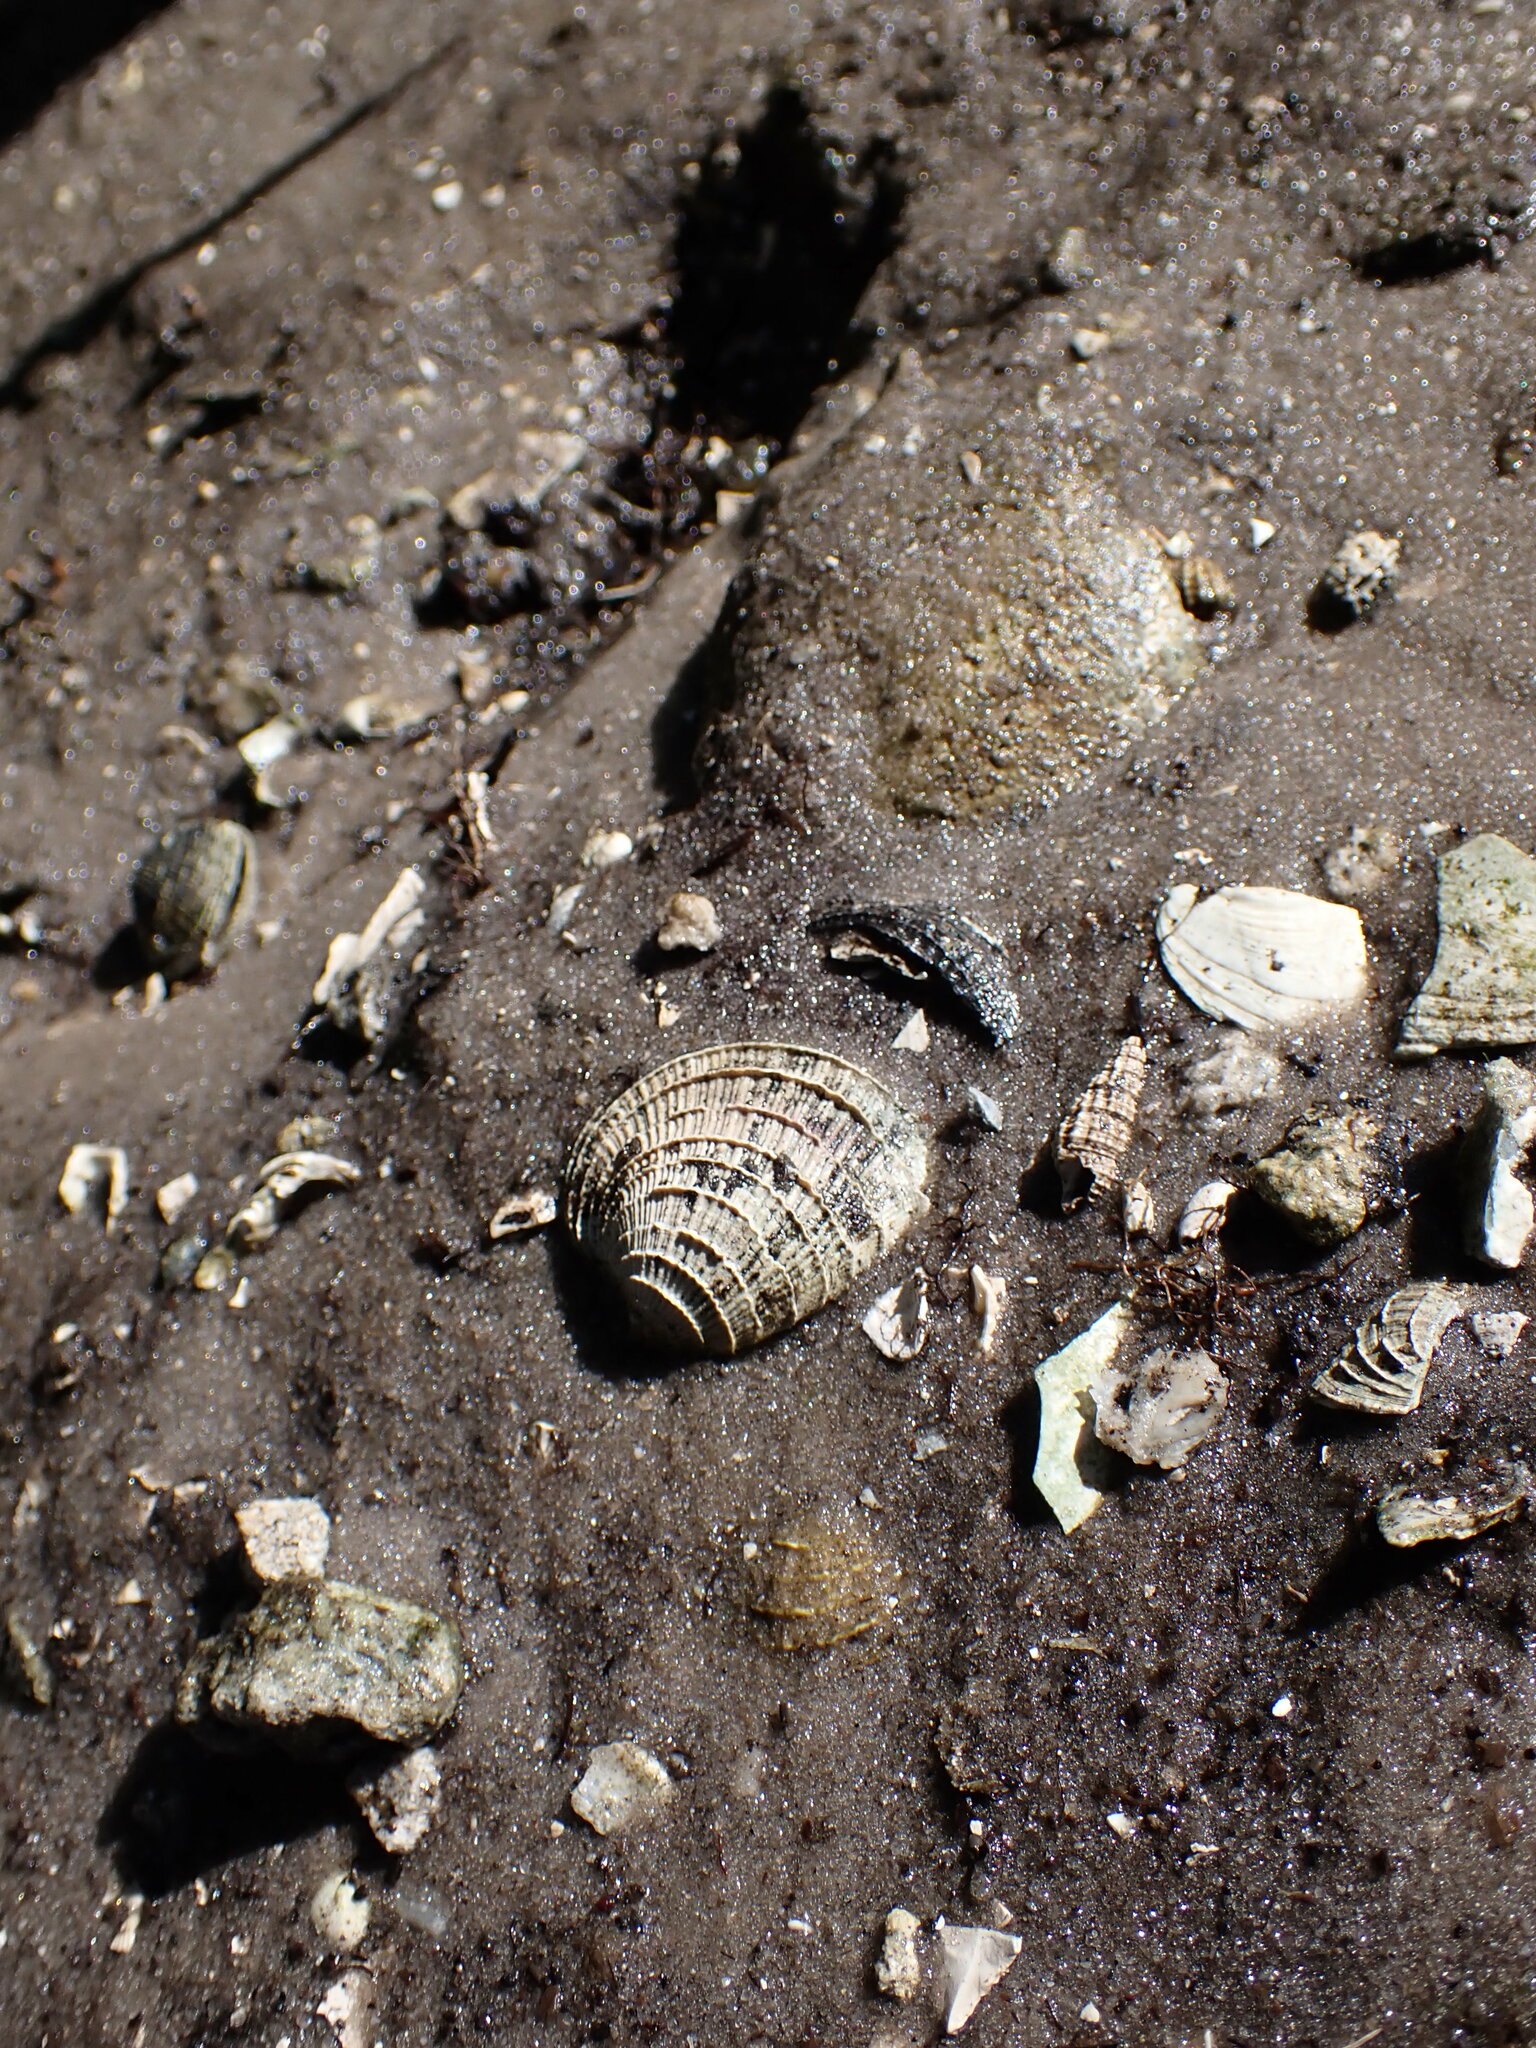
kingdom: Animalia
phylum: Mollusca
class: Bivalvia
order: Venerida
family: Veneridae
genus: Chione
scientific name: Chione elevata
